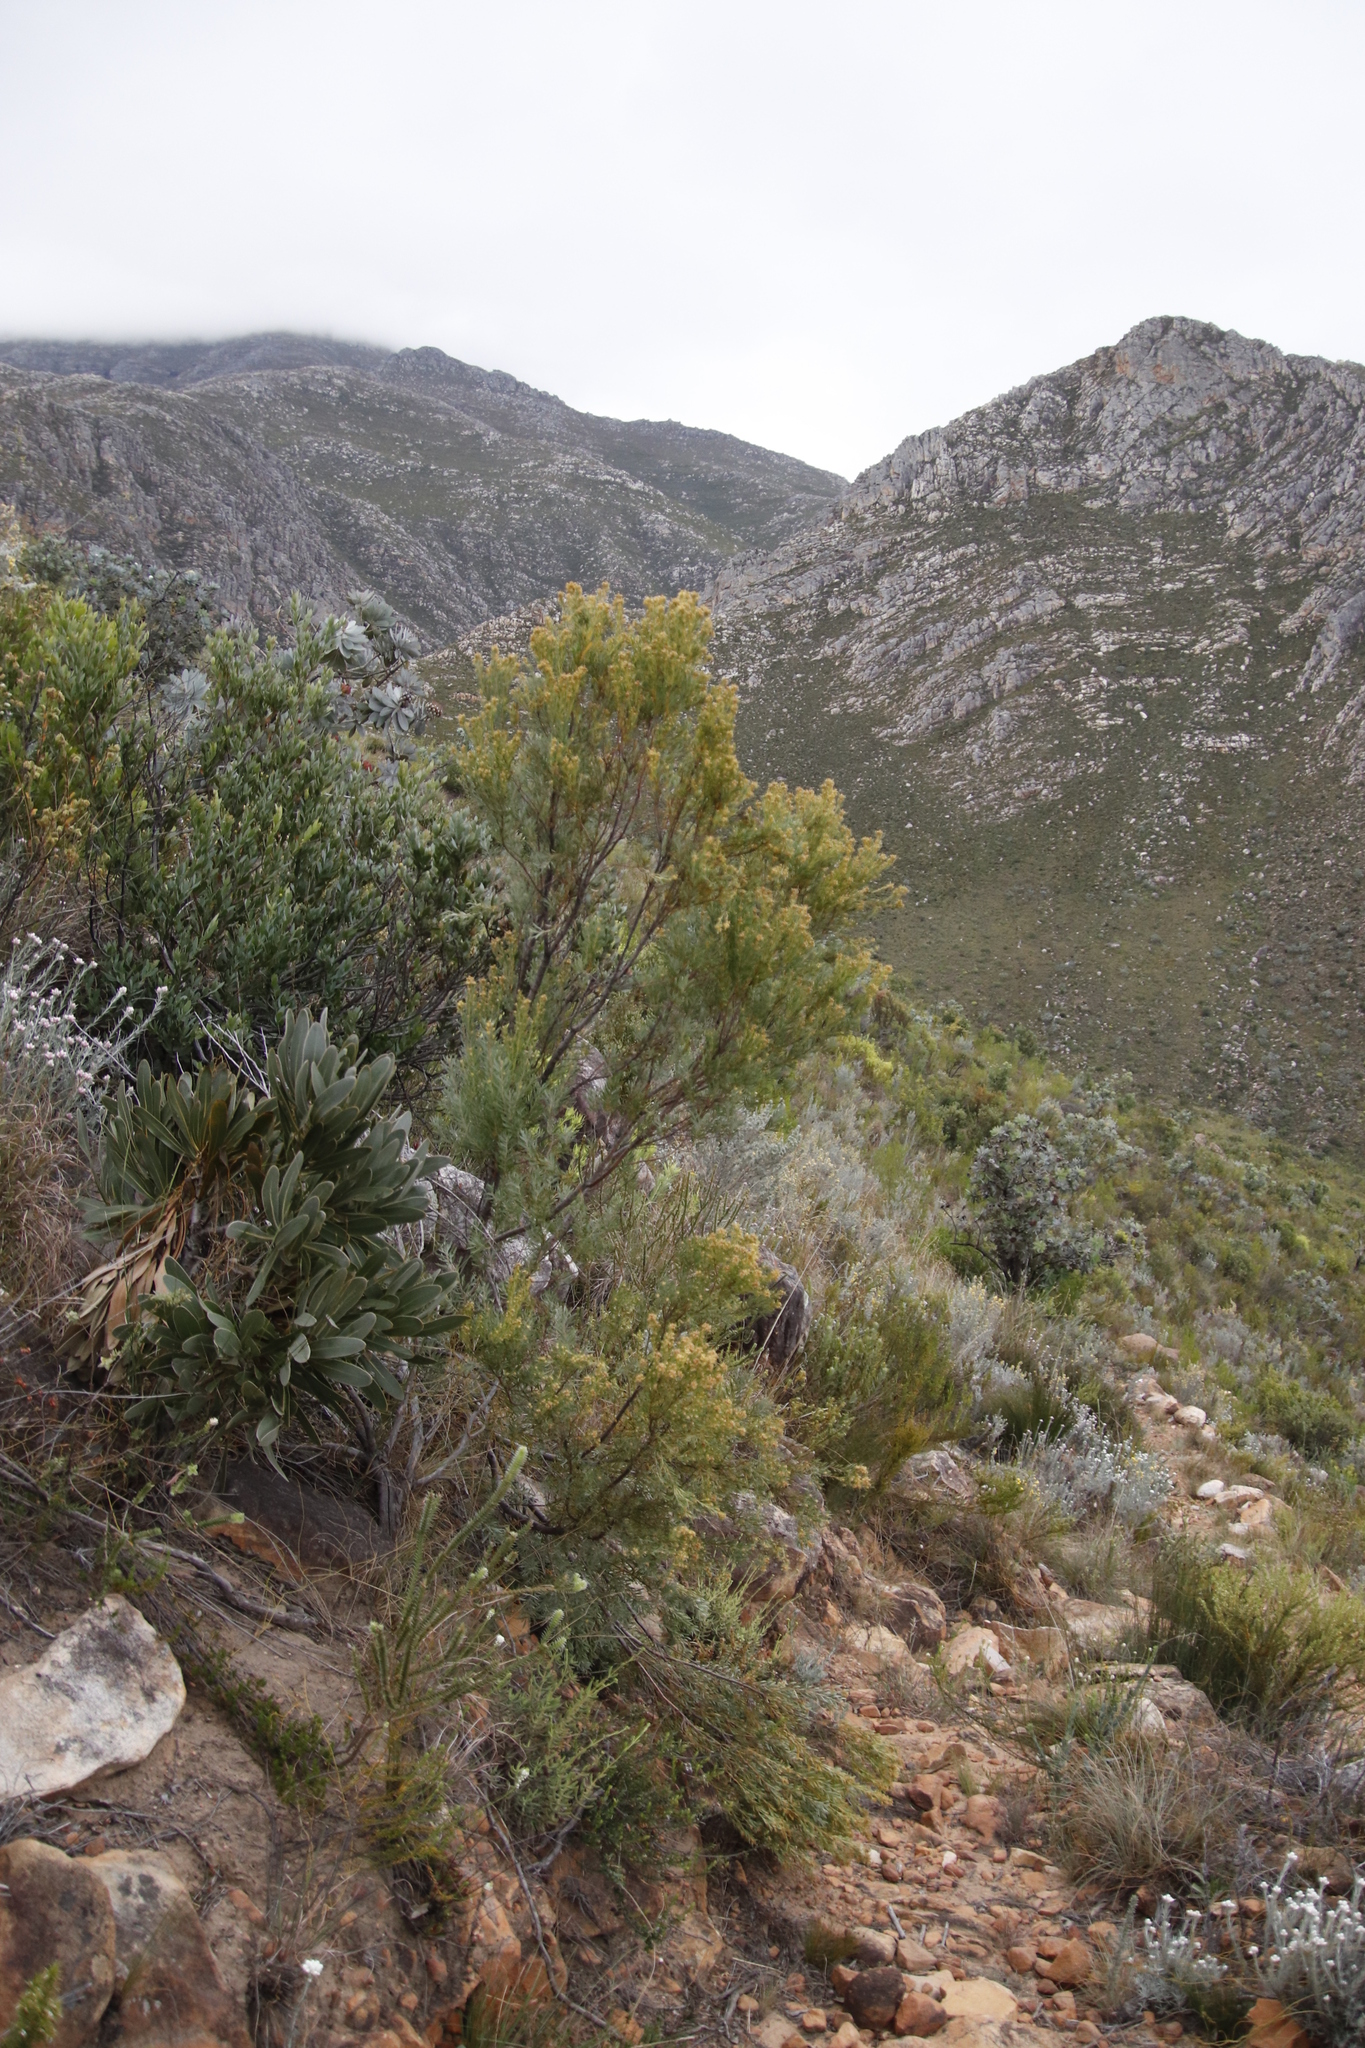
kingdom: Plantae
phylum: Tracheophyta
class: Magnoliopsida
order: Proteales
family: Proteaceae
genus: Leucadendron
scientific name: Leucadendron rubrum
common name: Spinning top
